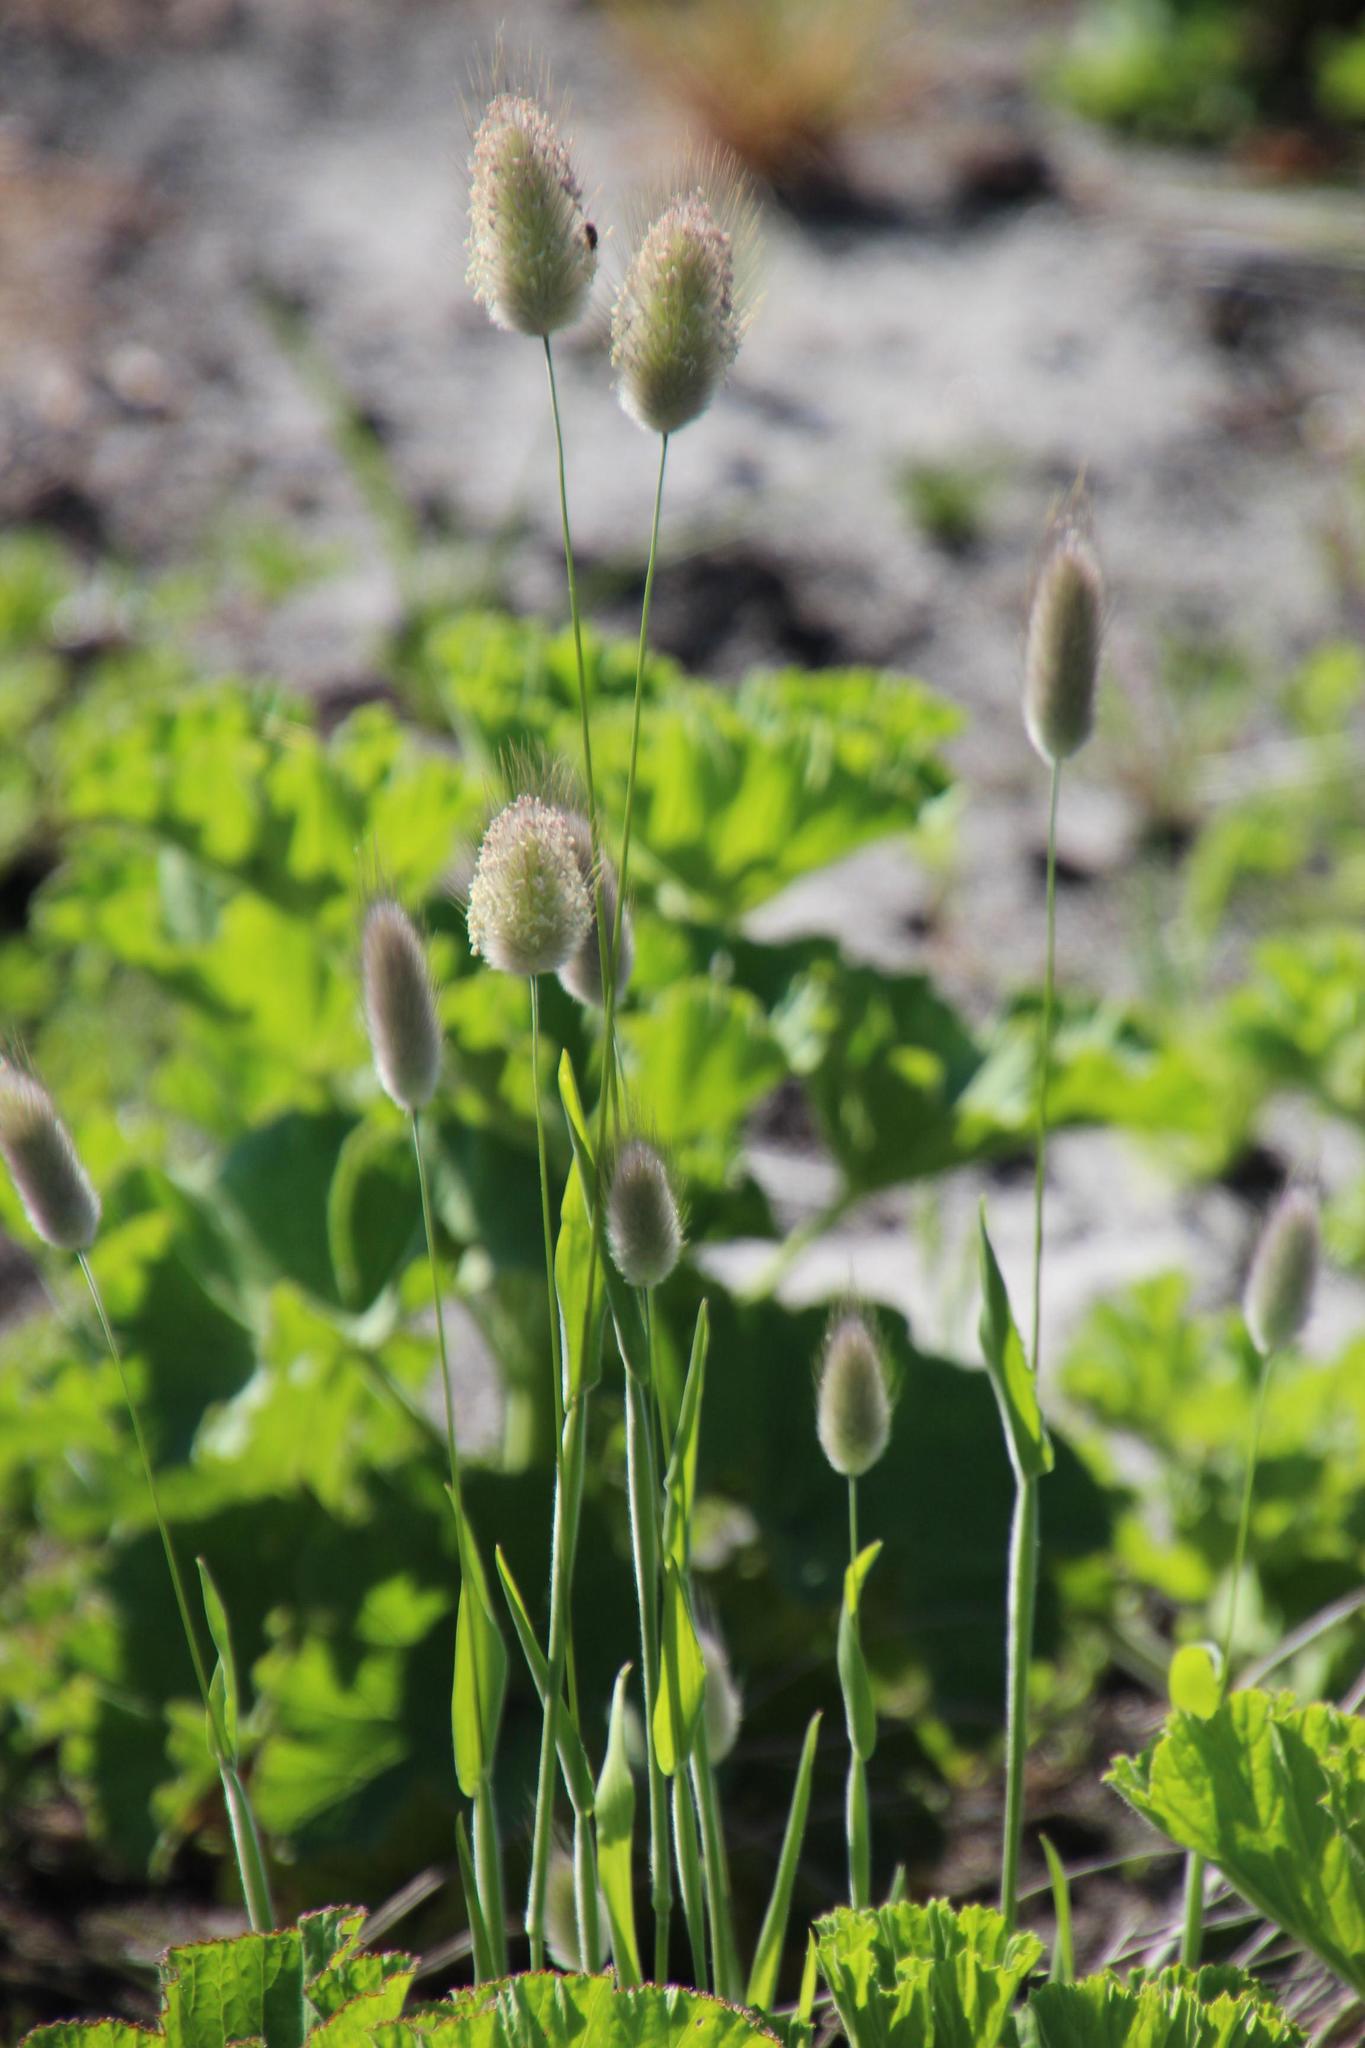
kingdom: Plantae
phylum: Tracheophyta
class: Liliopsida
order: Poales
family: Poaceae
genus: Lagurus
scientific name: Lagurus ovatus
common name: Hare's-tail
